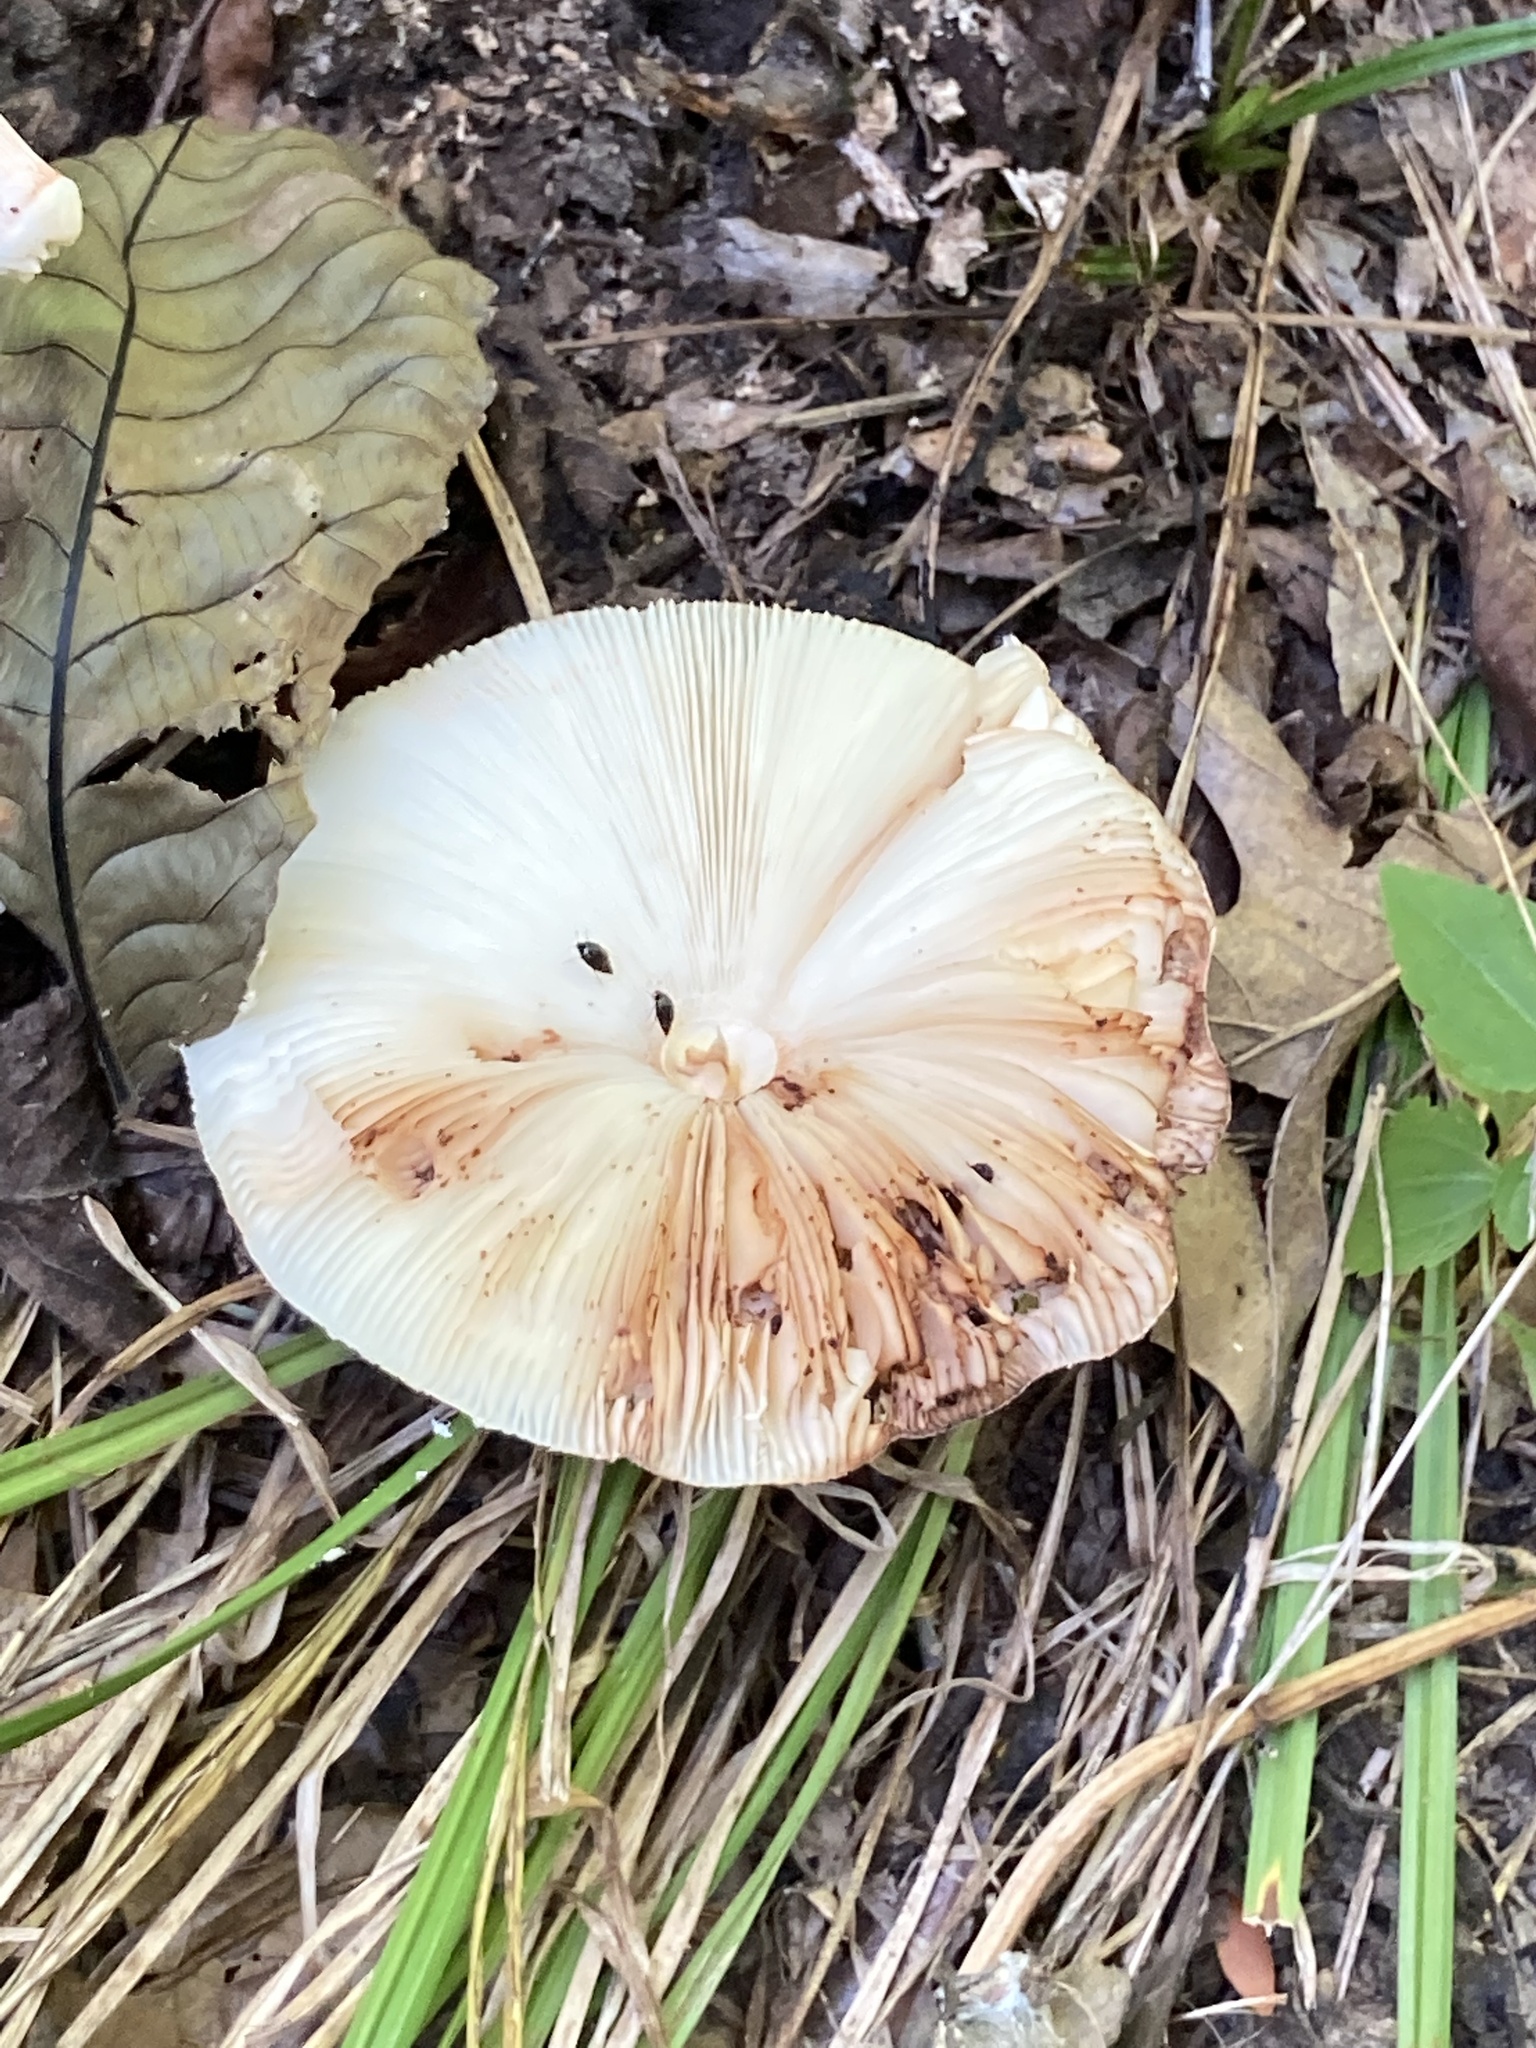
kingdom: Fungi
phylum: Basidiomycota
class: Agaricomycetes
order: Agaricales
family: Agaricaceae
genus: Leucoagaricus
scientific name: Leucoagaricus americanus
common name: Reddening lepiota
